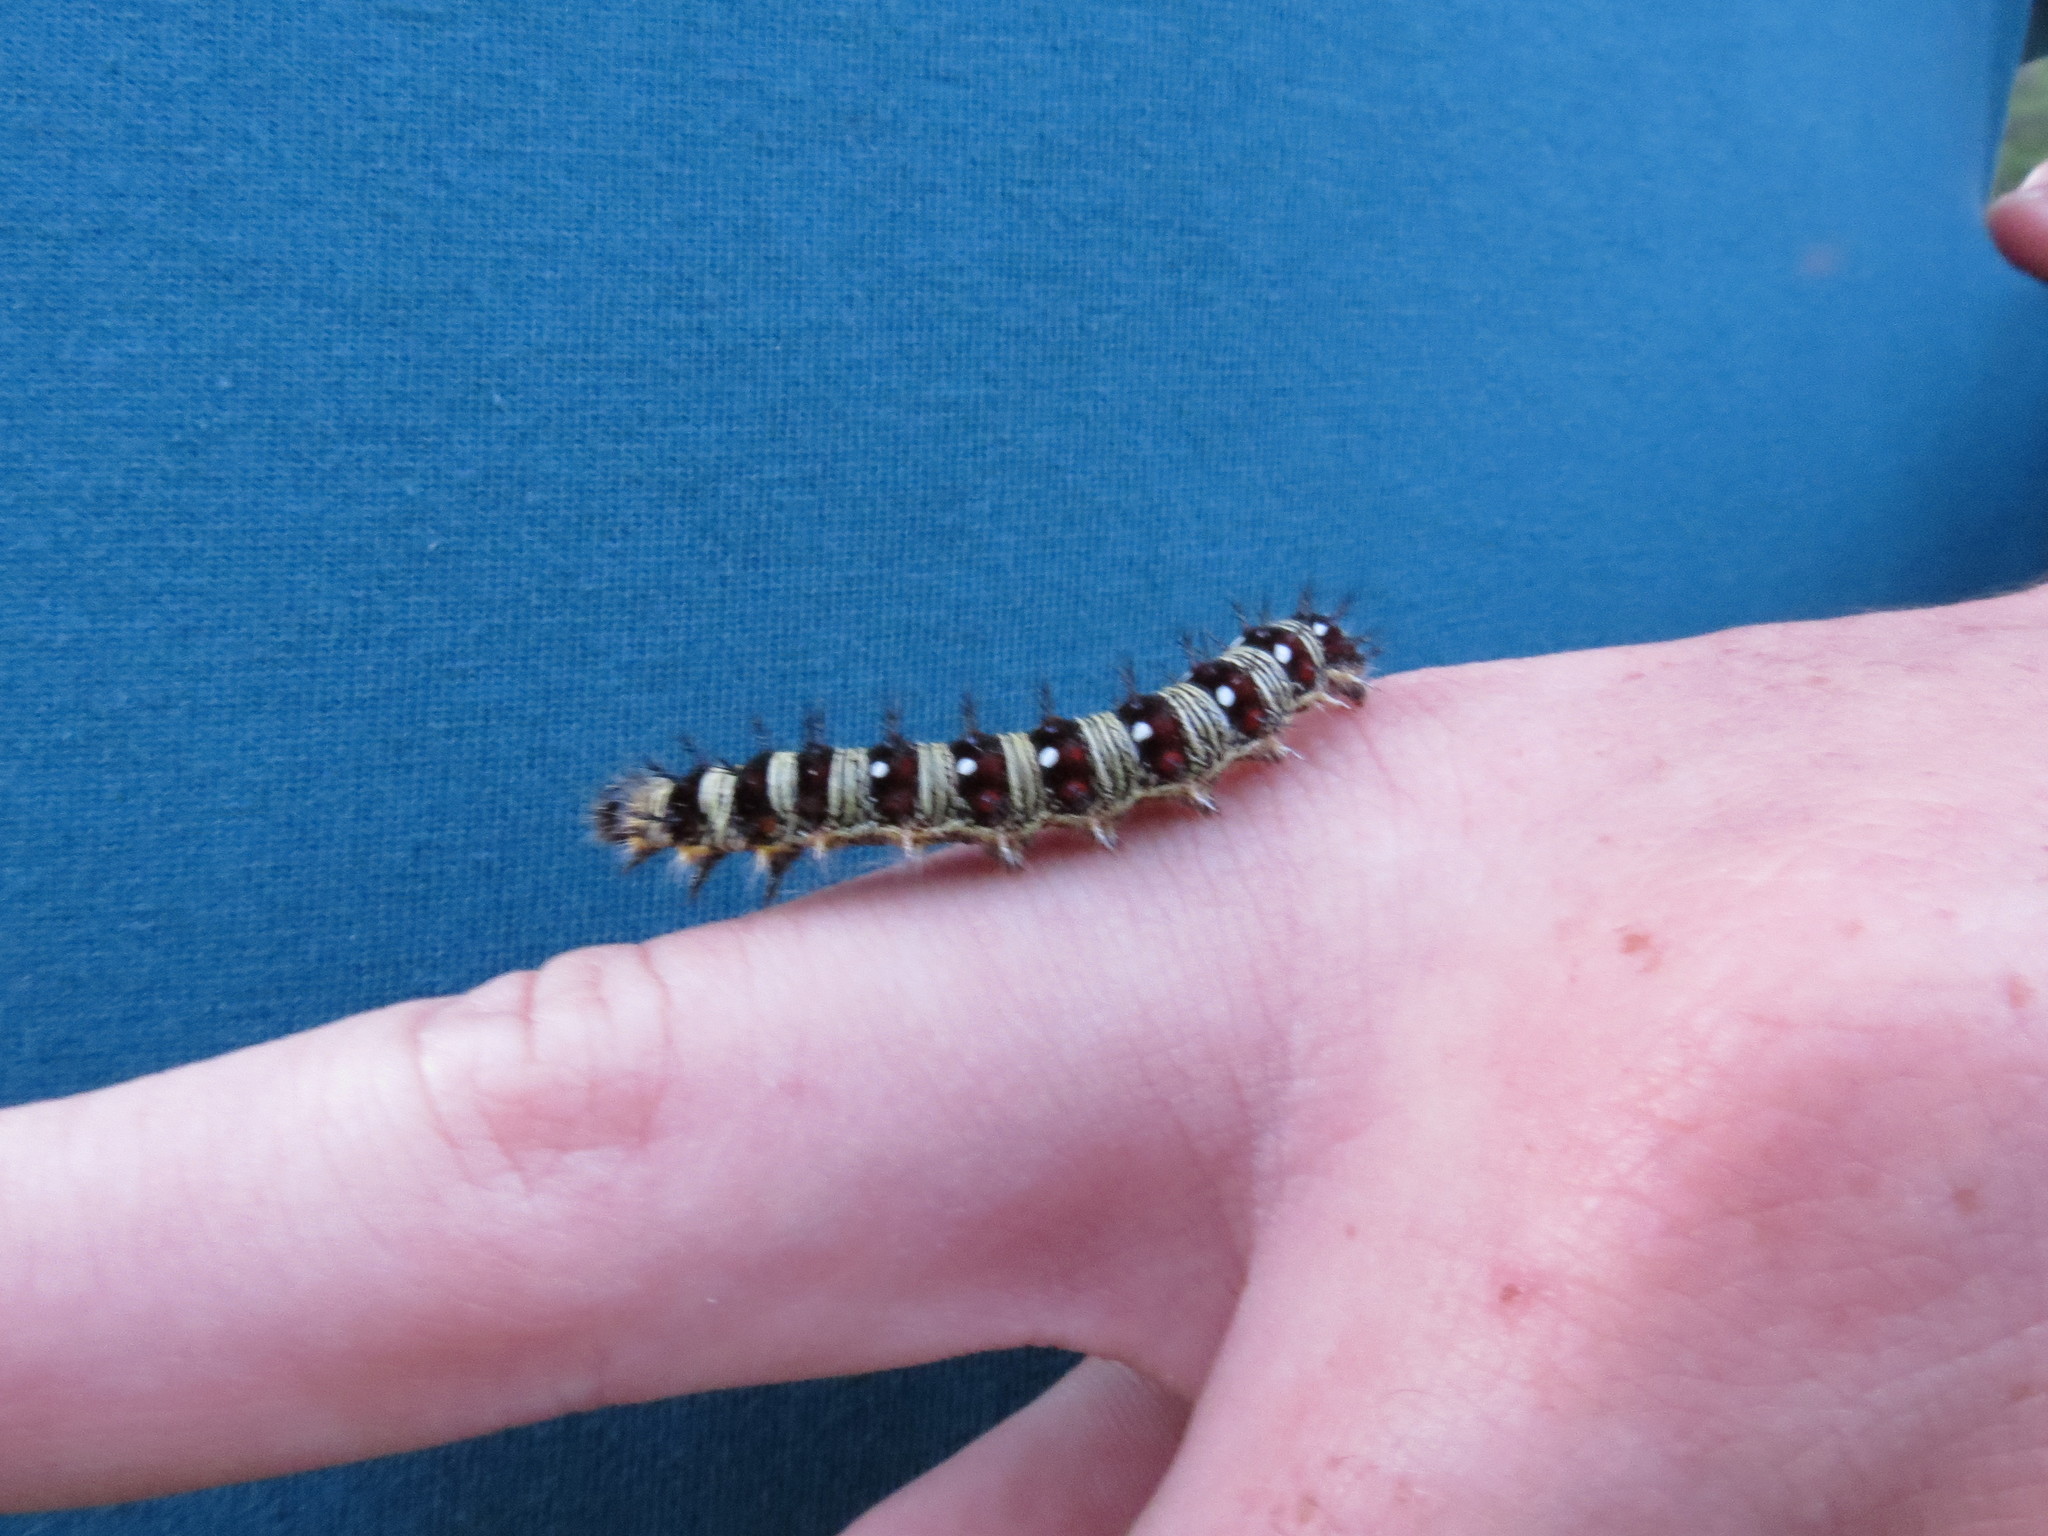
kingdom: Animalia
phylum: Arthropoda
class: Insecta
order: Lepidoptera
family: Nymphalidae
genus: Vanessa
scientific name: Vanessa virginiensis
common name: American lady
